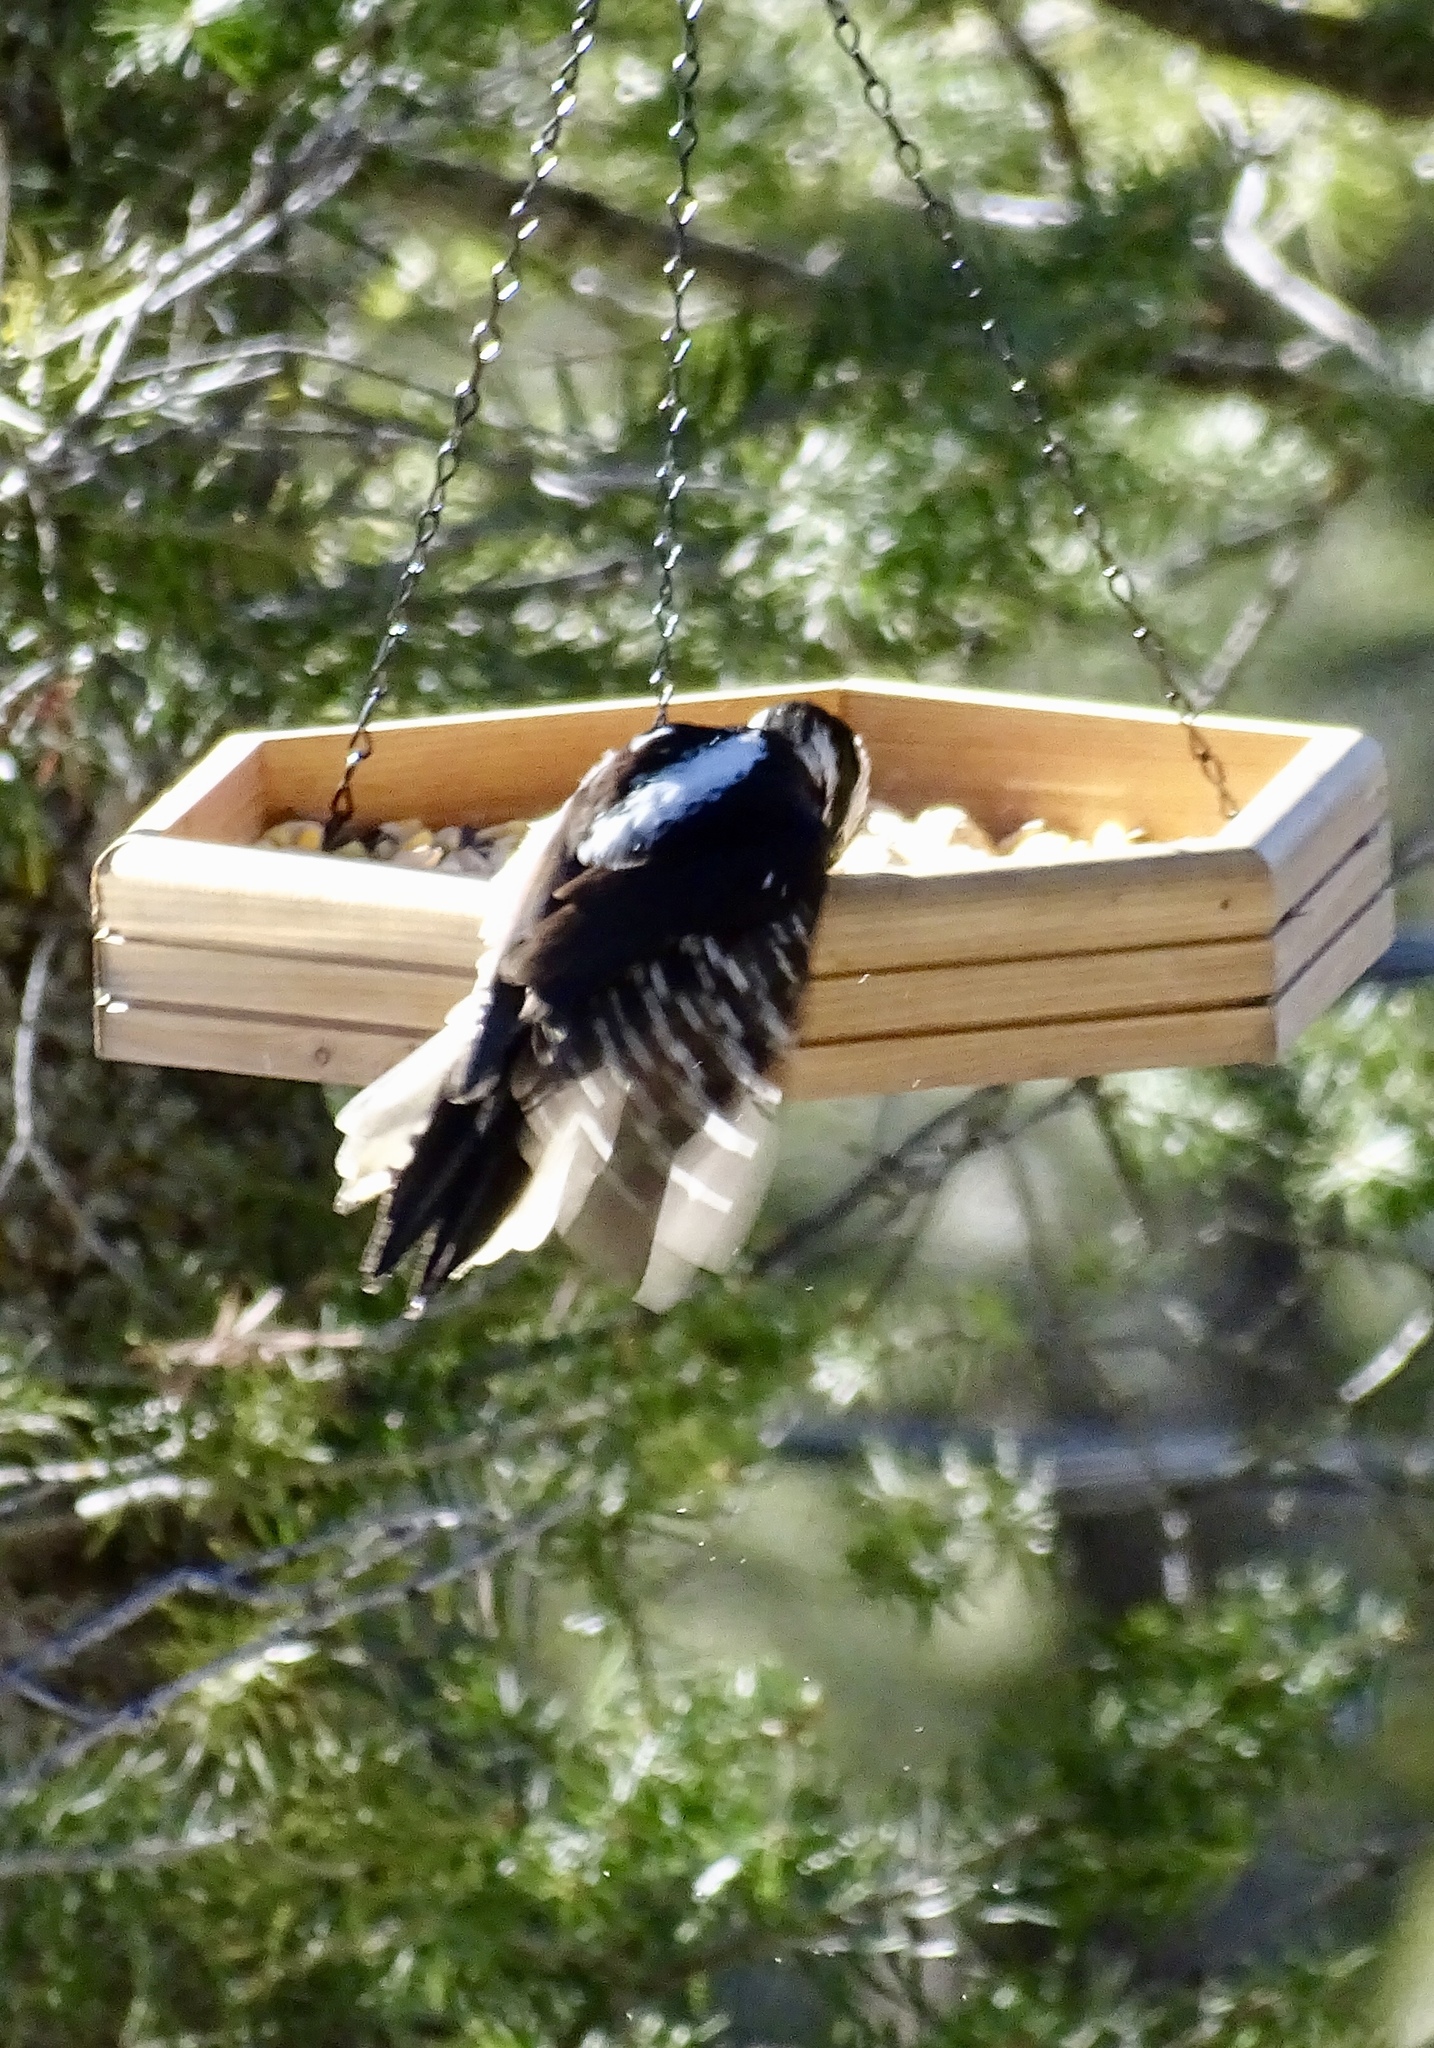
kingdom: Animalia
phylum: Chordata
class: Aves
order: Piciformes
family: Picidae
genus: Dryobates
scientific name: Dryobates pubescens
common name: Downy woodpecker
